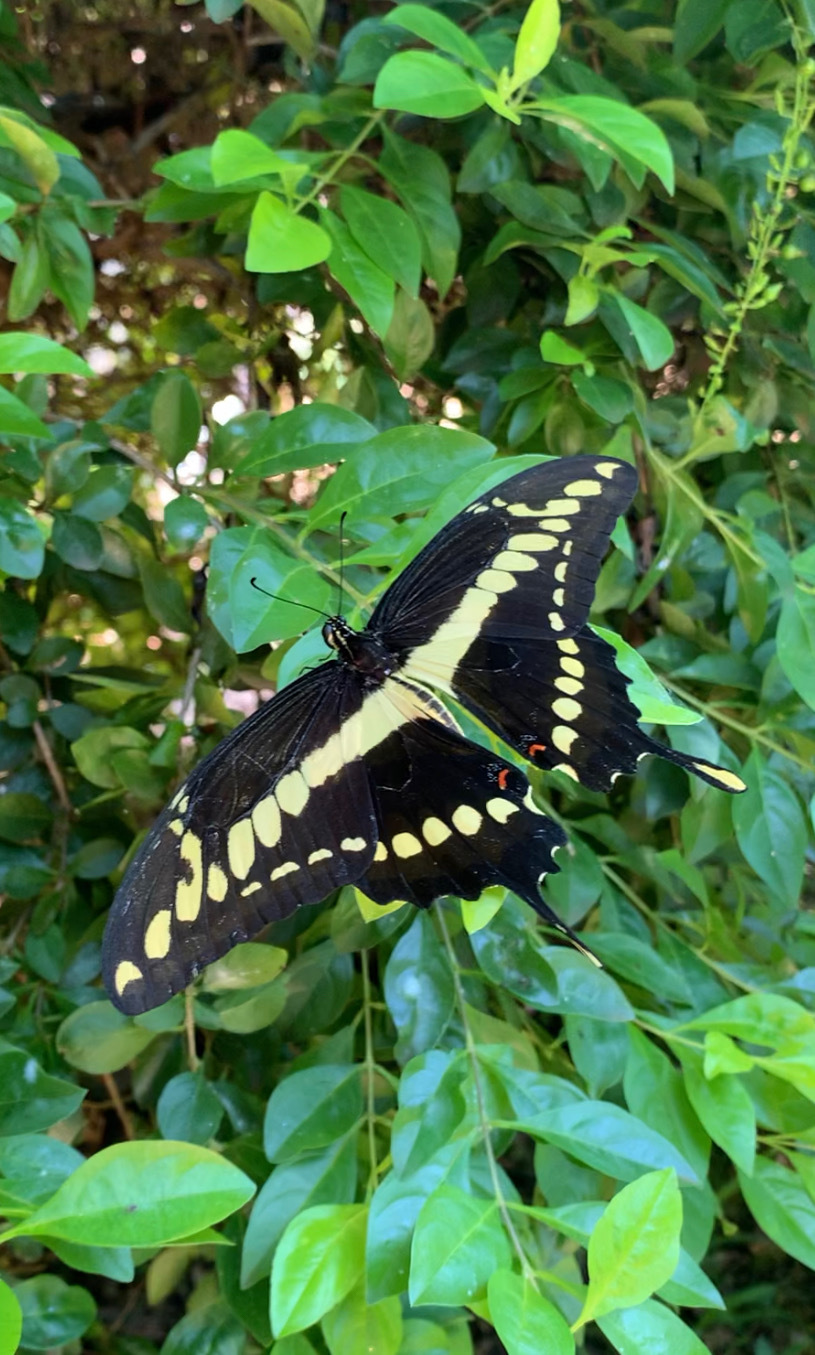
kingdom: Animalia
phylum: Arthropoda
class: Insecta
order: Lepidoptera
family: Papilionidae
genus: Papilio
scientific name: Papilio thoas
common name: King swallowtail
